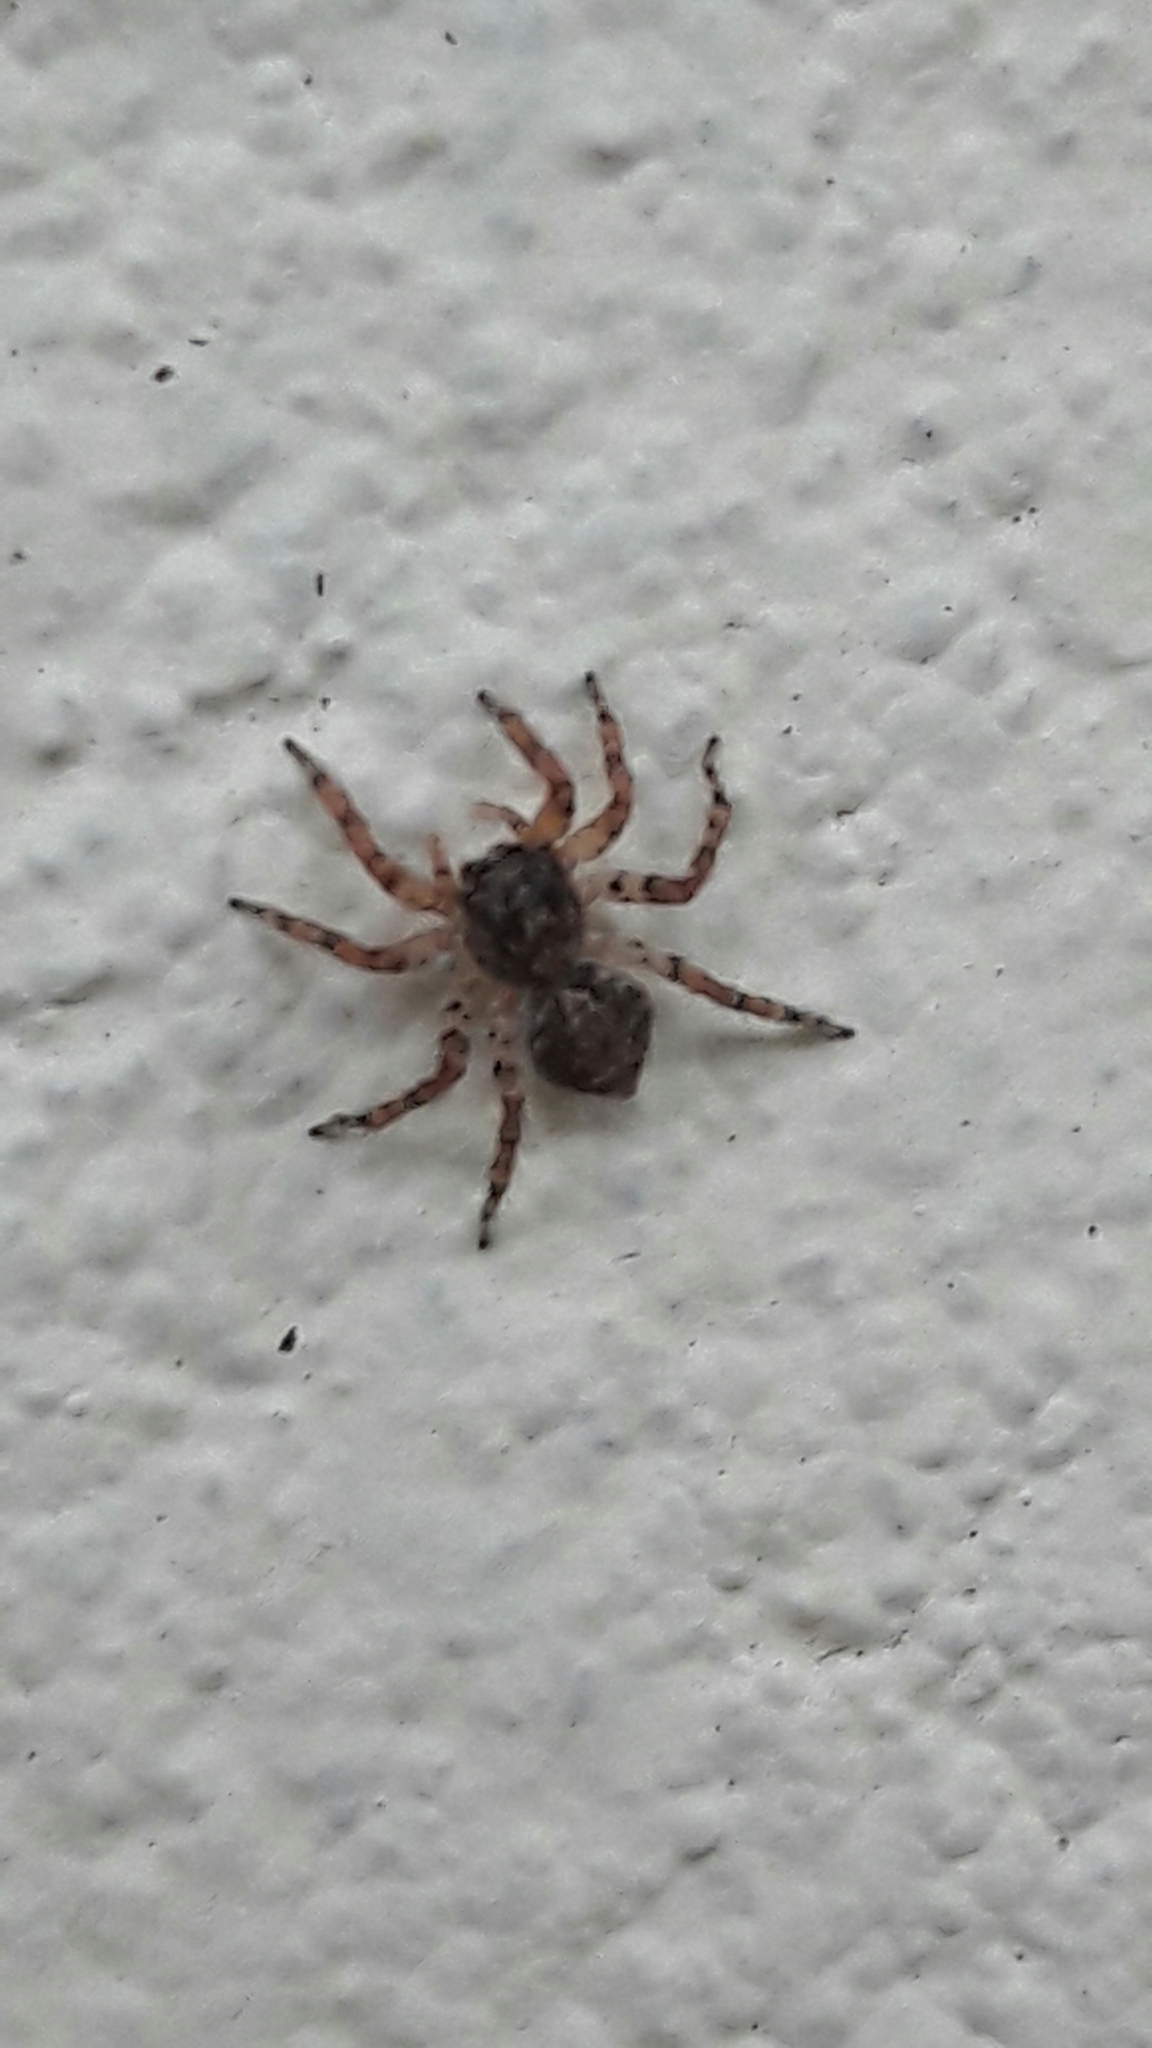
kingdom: Animalia
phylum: Arthropoda
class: Arachnida
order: Araneae
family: Salticidae
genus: Marma
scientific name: Marma nigritarsis
